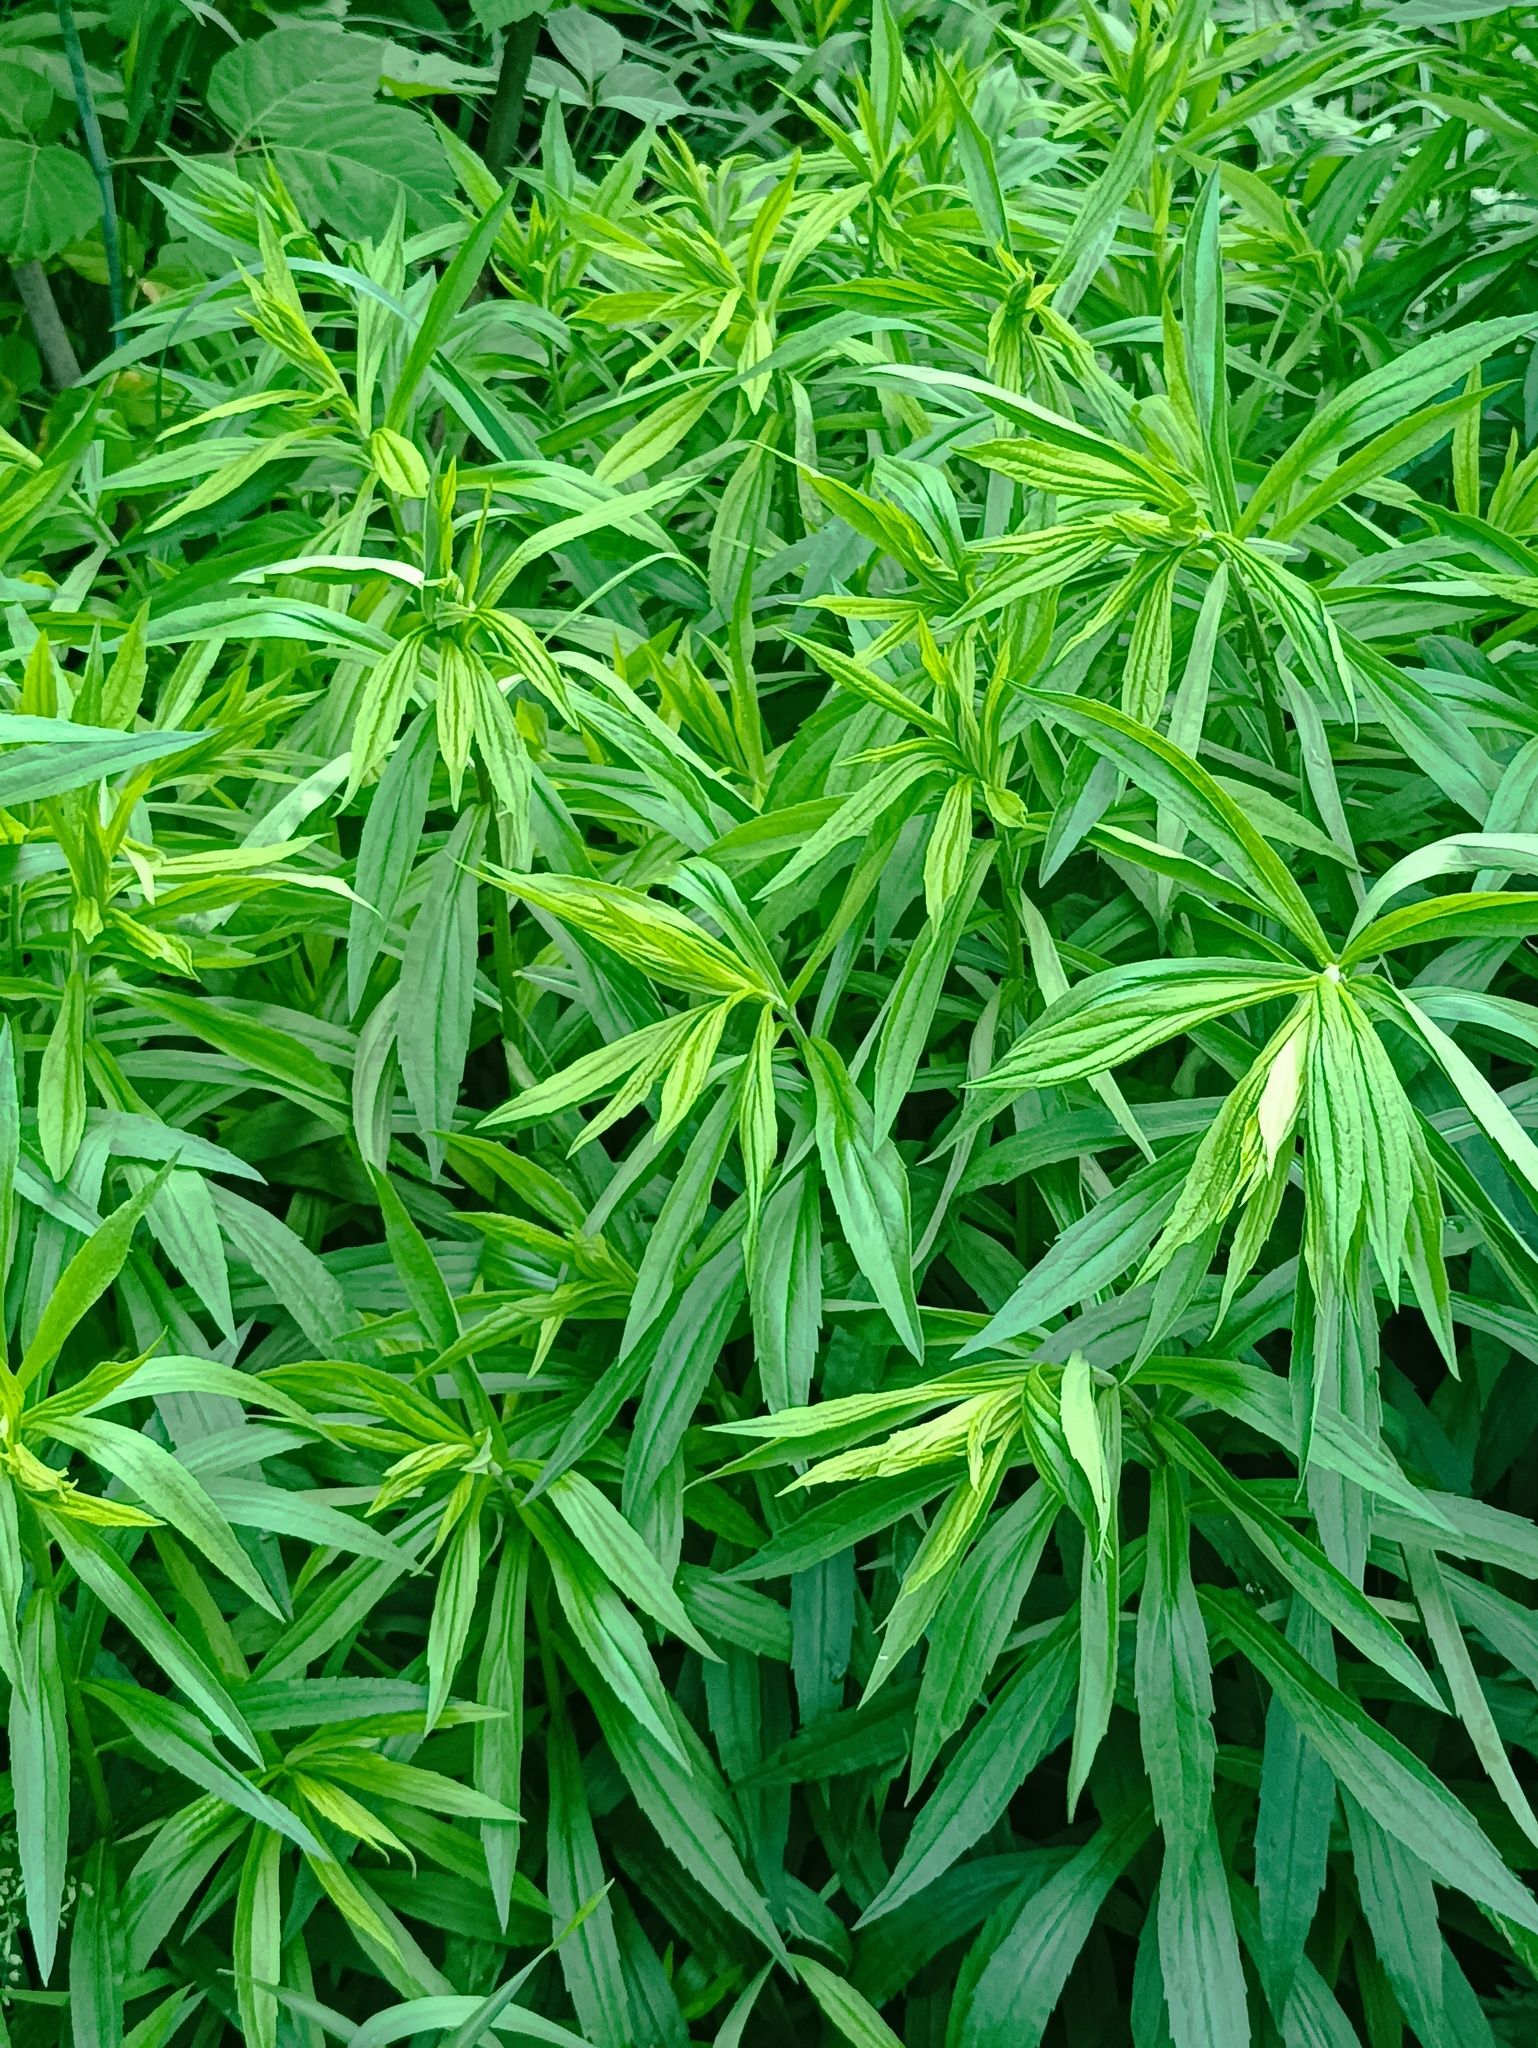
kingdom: Plantae
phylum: Tracheophyta
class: Magnoliopsida
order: Asterales
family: Asteraceae
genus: Solidago
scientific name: Solidago canadensis
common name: Canada goldenrod
